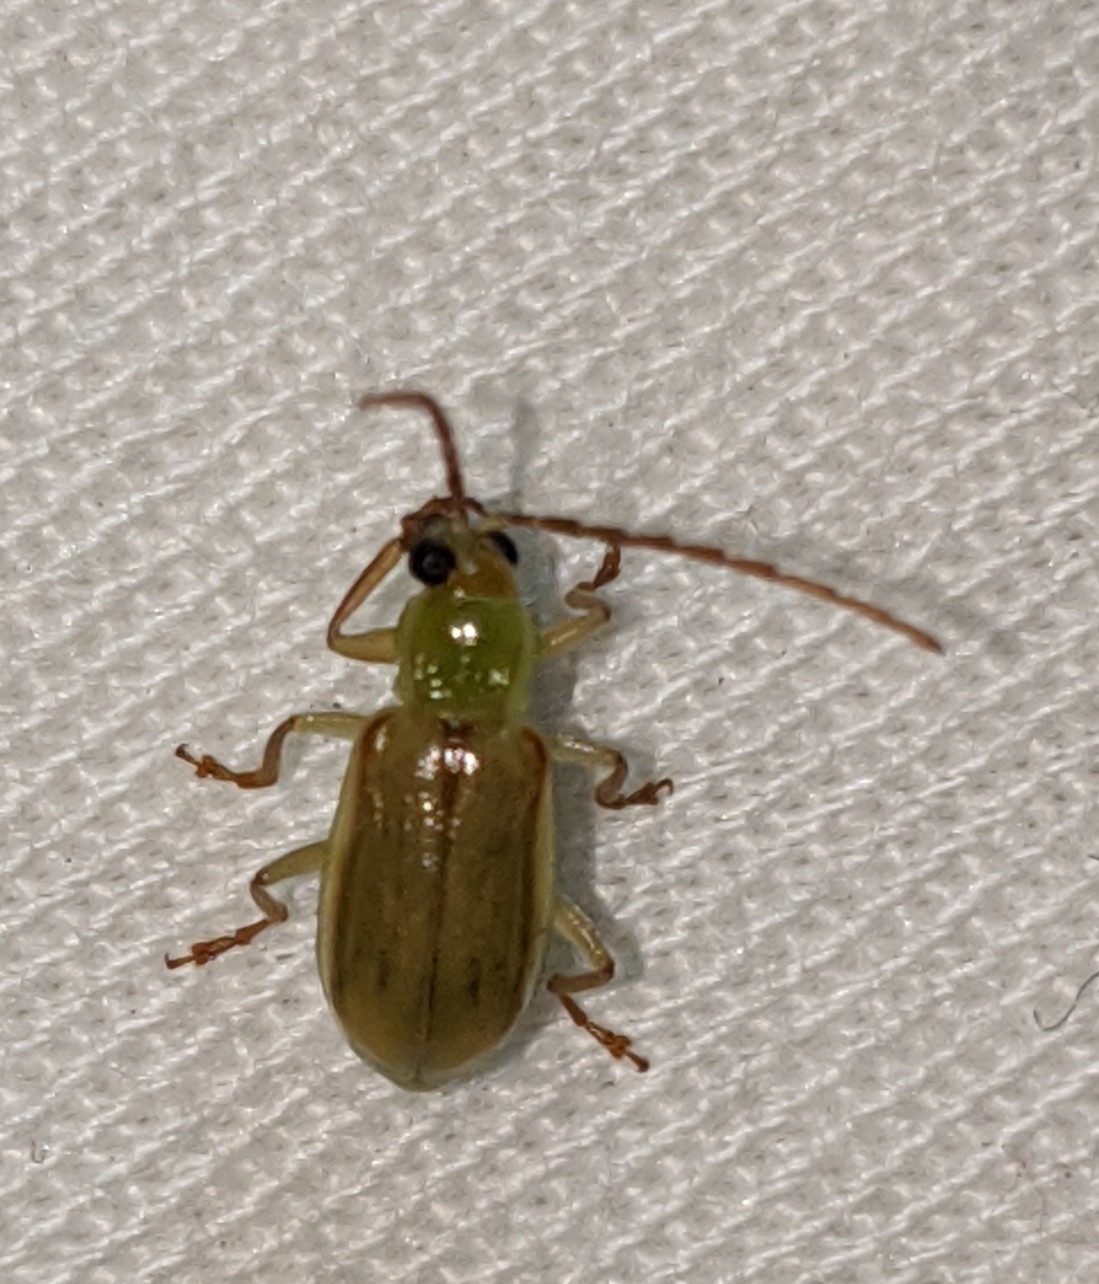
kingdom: Animalia
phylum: Arthropoda
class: Insecta
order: Coleoptera
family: Chrysomelidae
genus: Diabrotica
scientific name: Diabrotica barberi
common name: Northern corn rootworm
